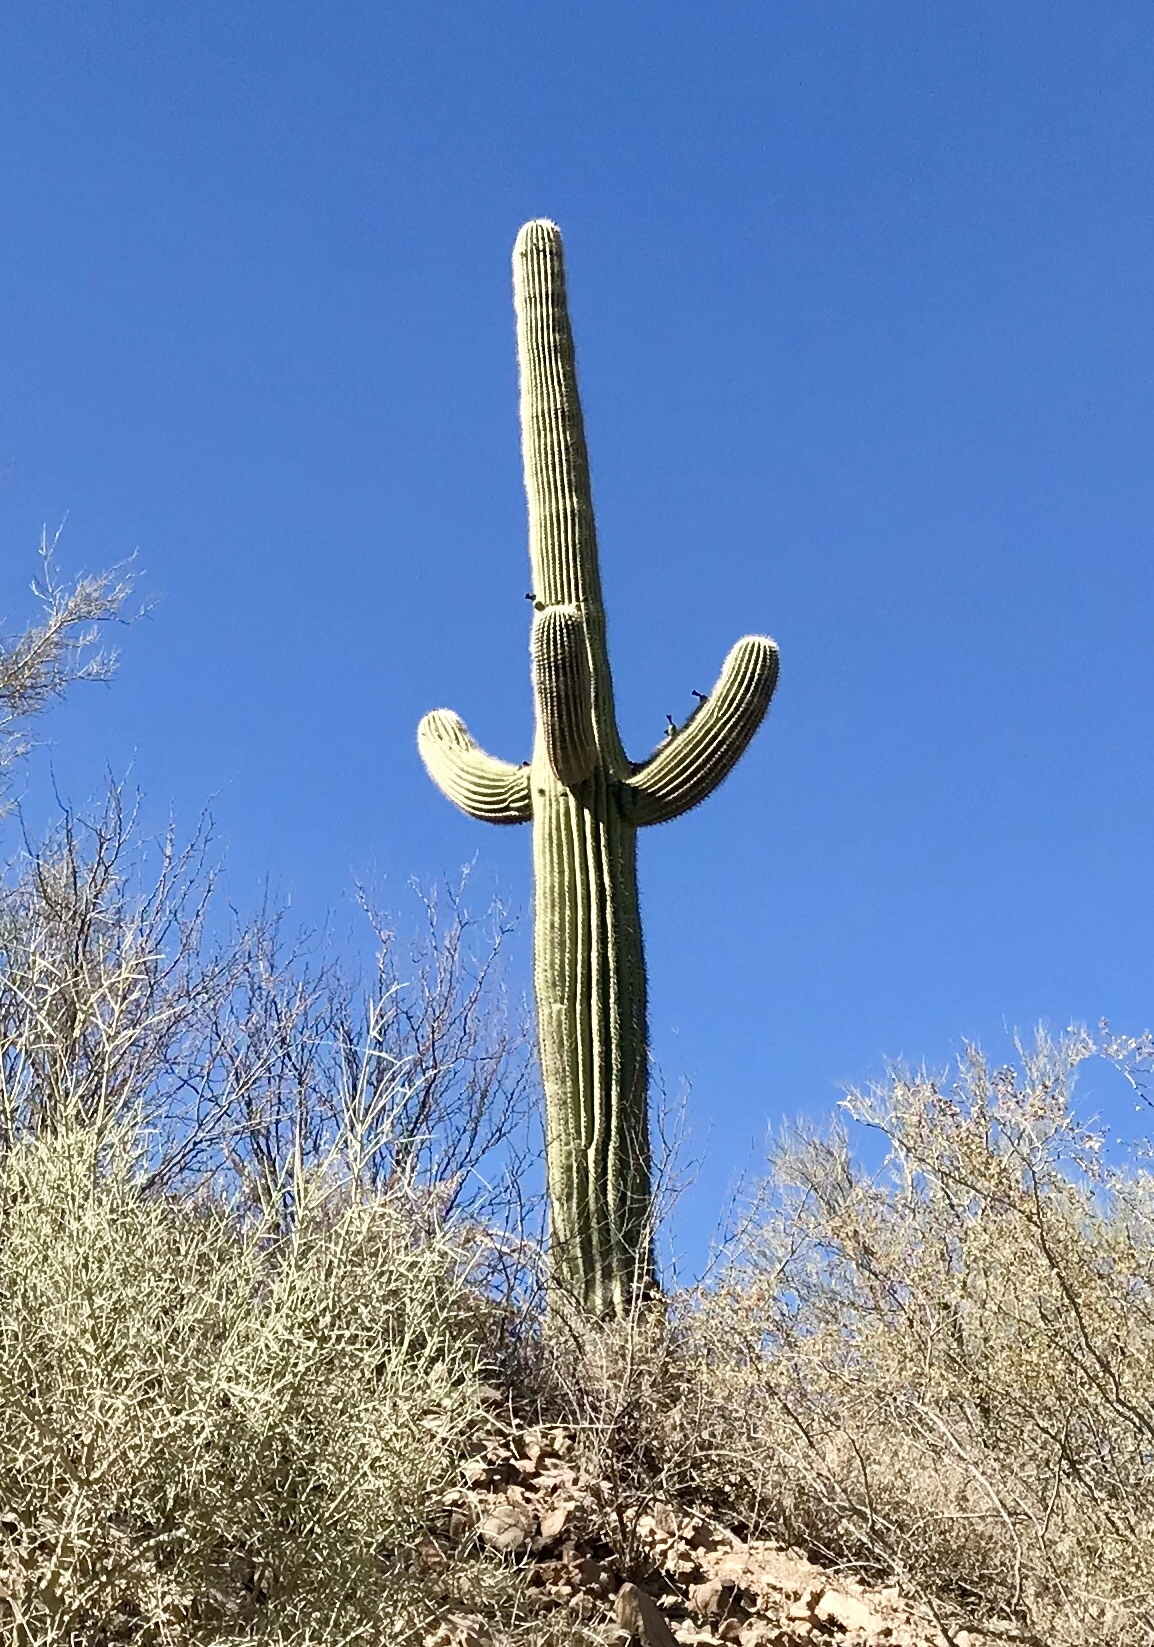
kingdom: Plantae
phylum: Tracheophyta
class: Magnoliopsida
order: Caryophyllales
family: Cactaceae
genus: Carnegiea
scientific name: Carnegiea gigantea
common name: Saguaro
